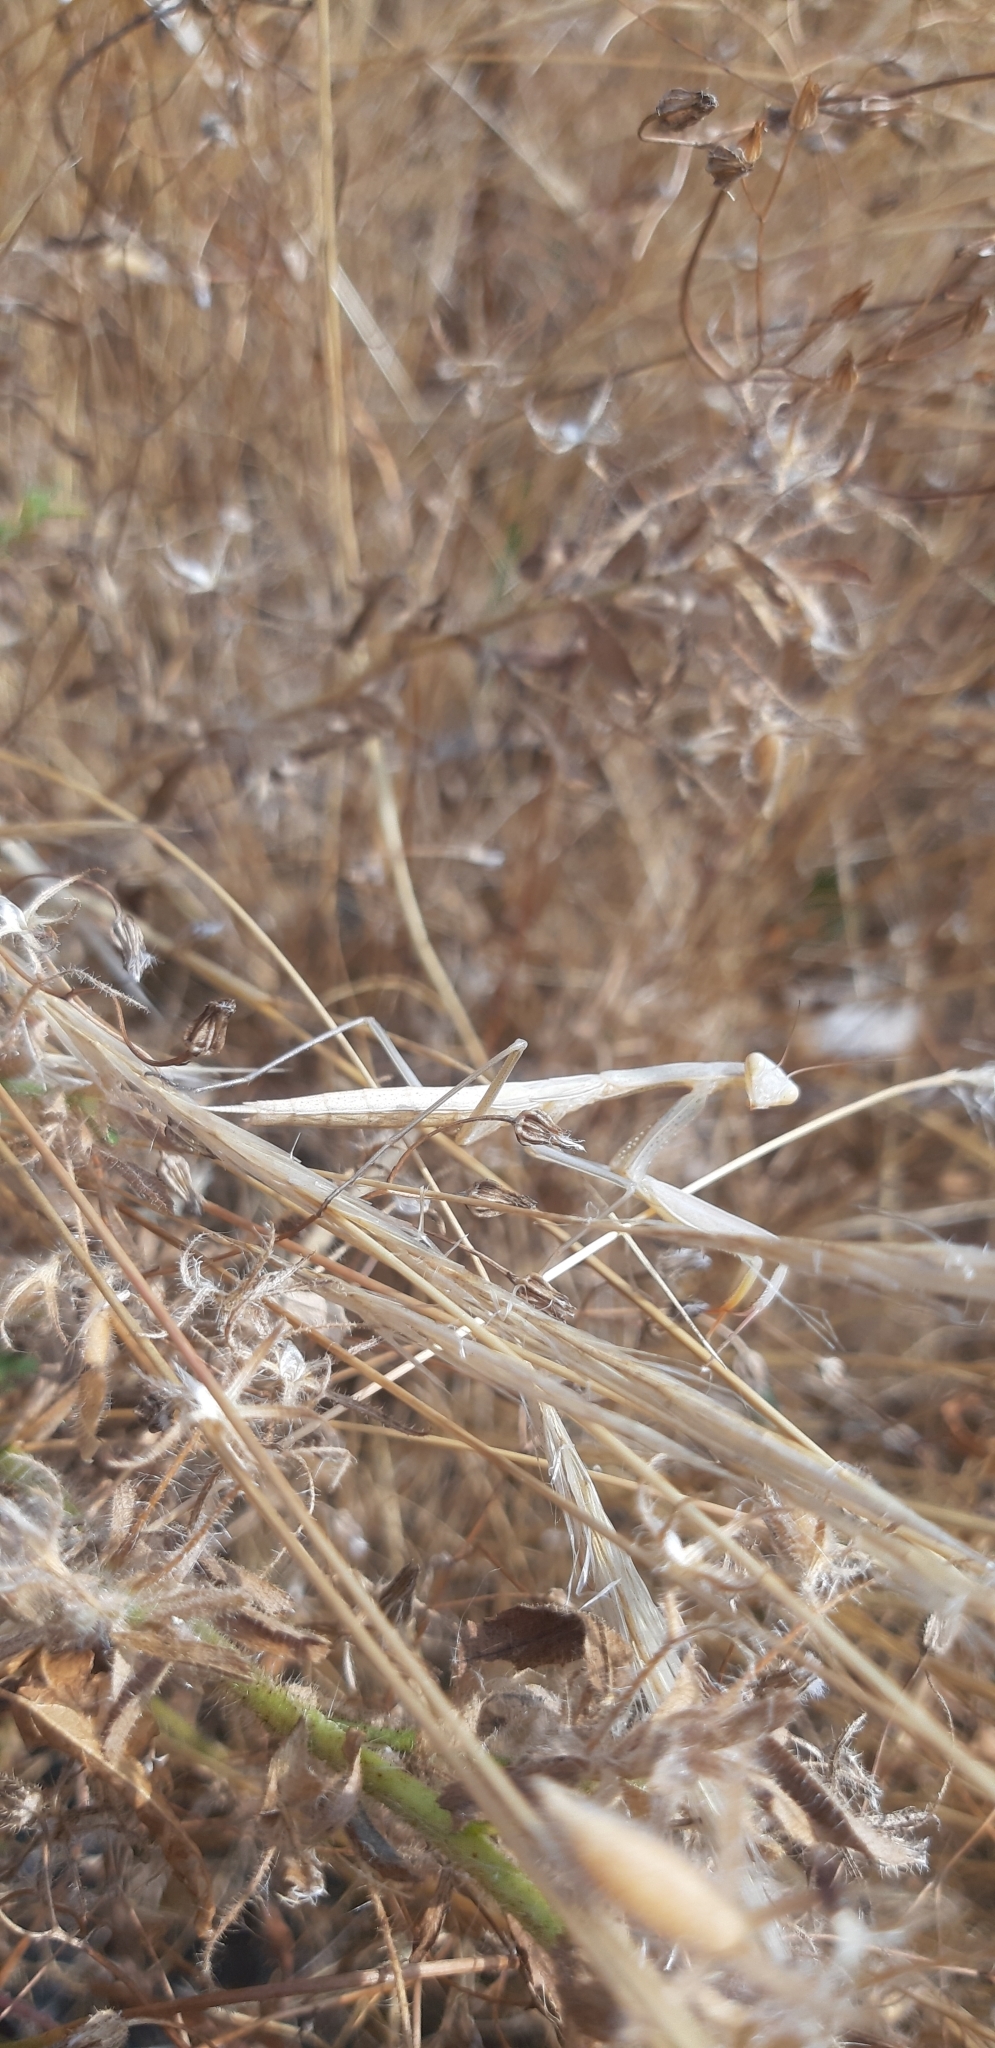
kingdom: Animalia
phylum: Arthropoda
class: Insecta
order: Mantodea
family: Mantidae
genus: Mantis
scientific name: Mantis religiosa
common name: Praying mantis
